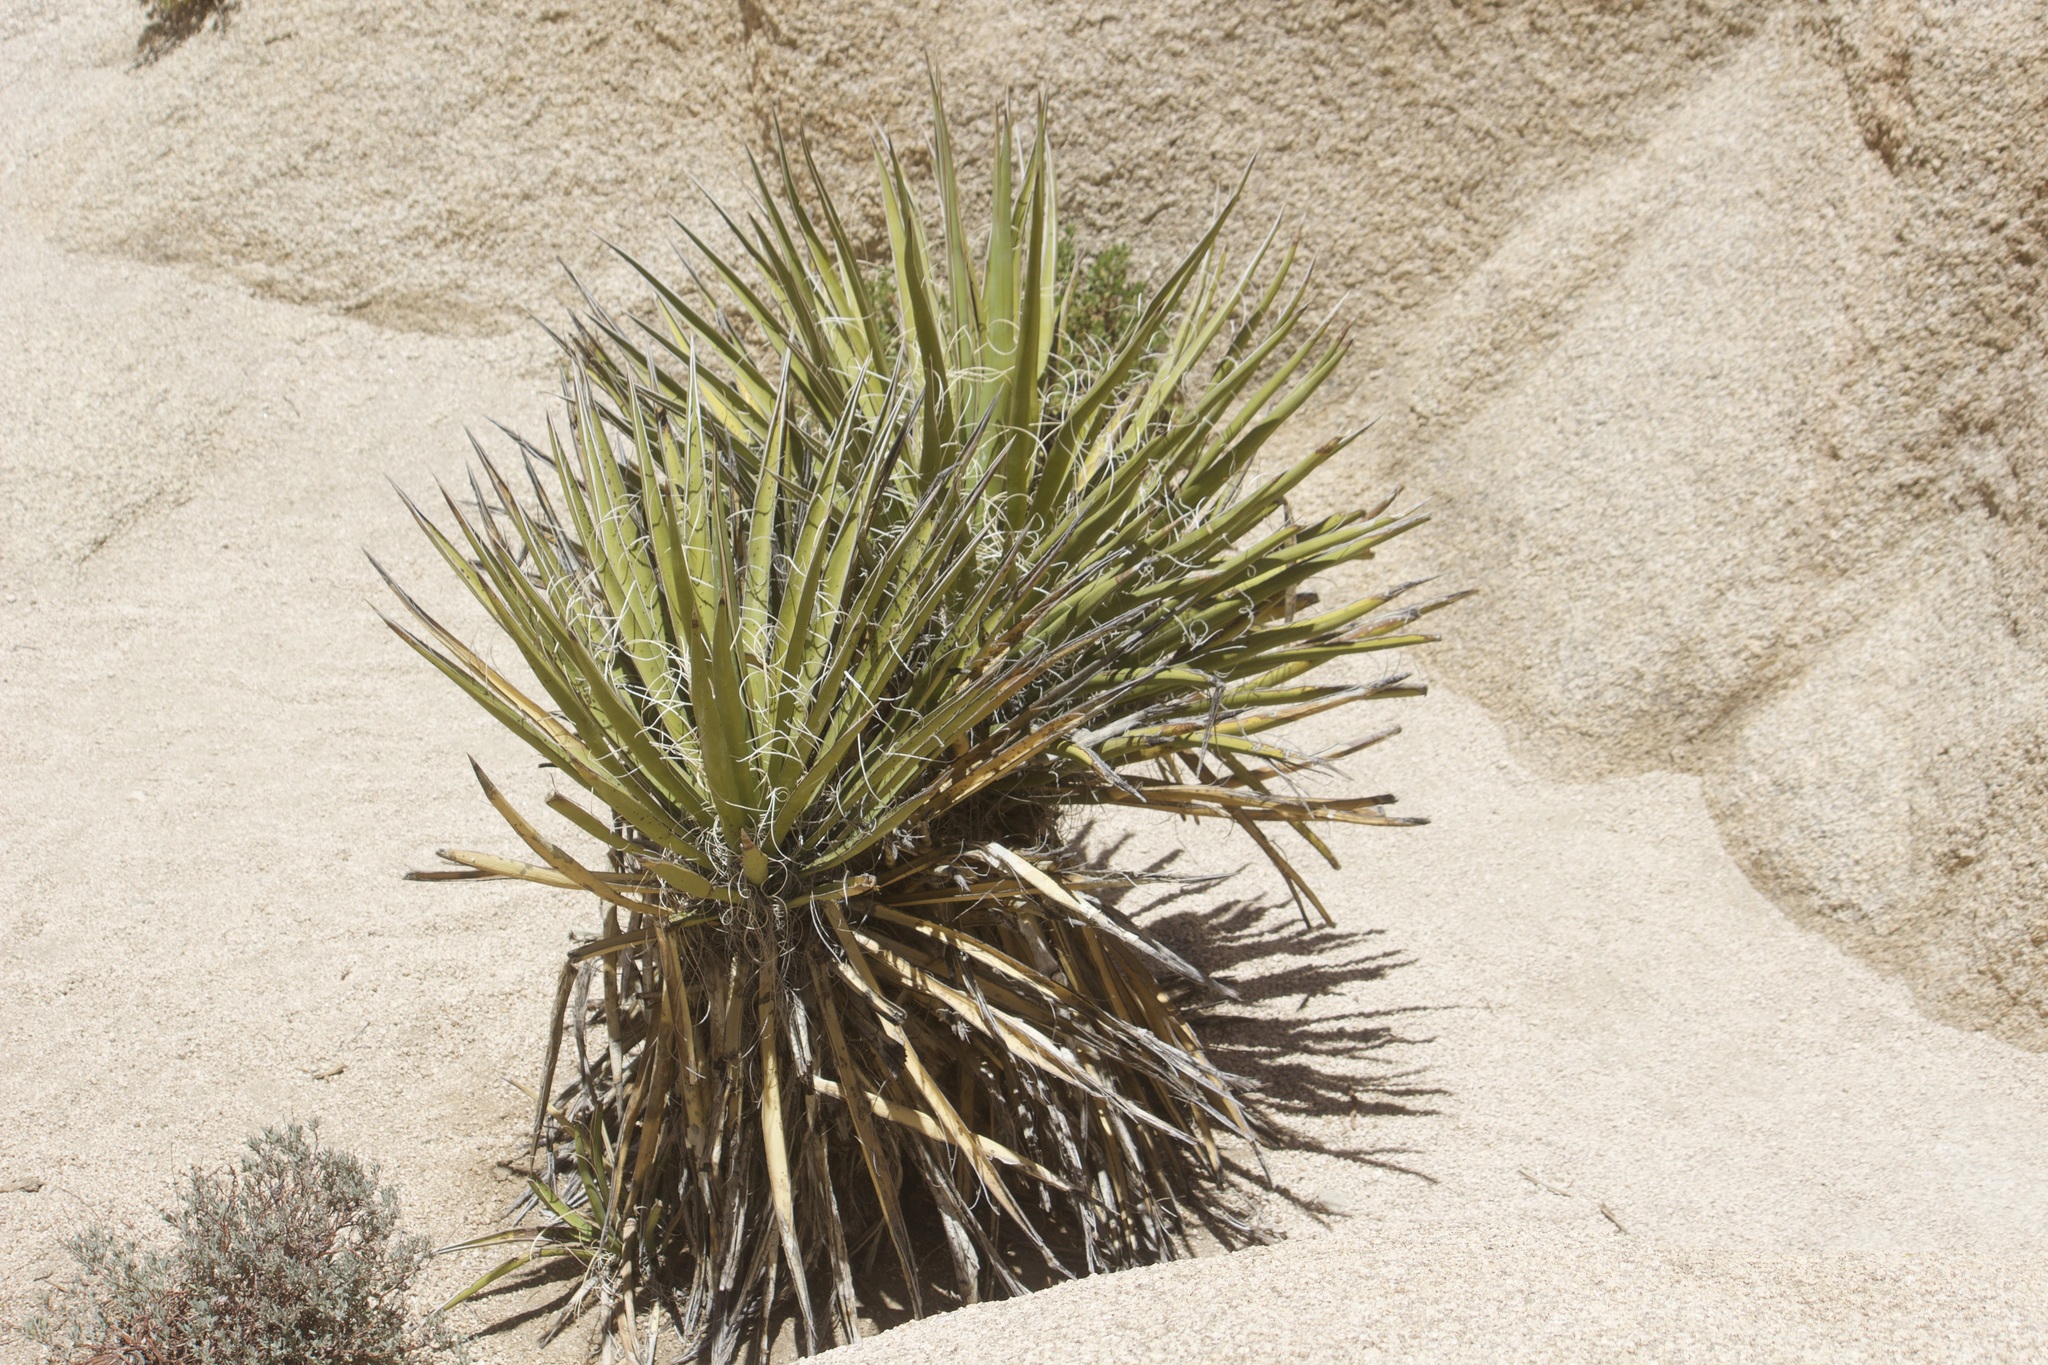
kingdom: Plantae
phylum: Tracheophyta
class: Liliopsida
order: Asparagales
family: Asparagaceae
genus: Yucca
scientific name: Yucca schidigera
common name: Mojave yucca
